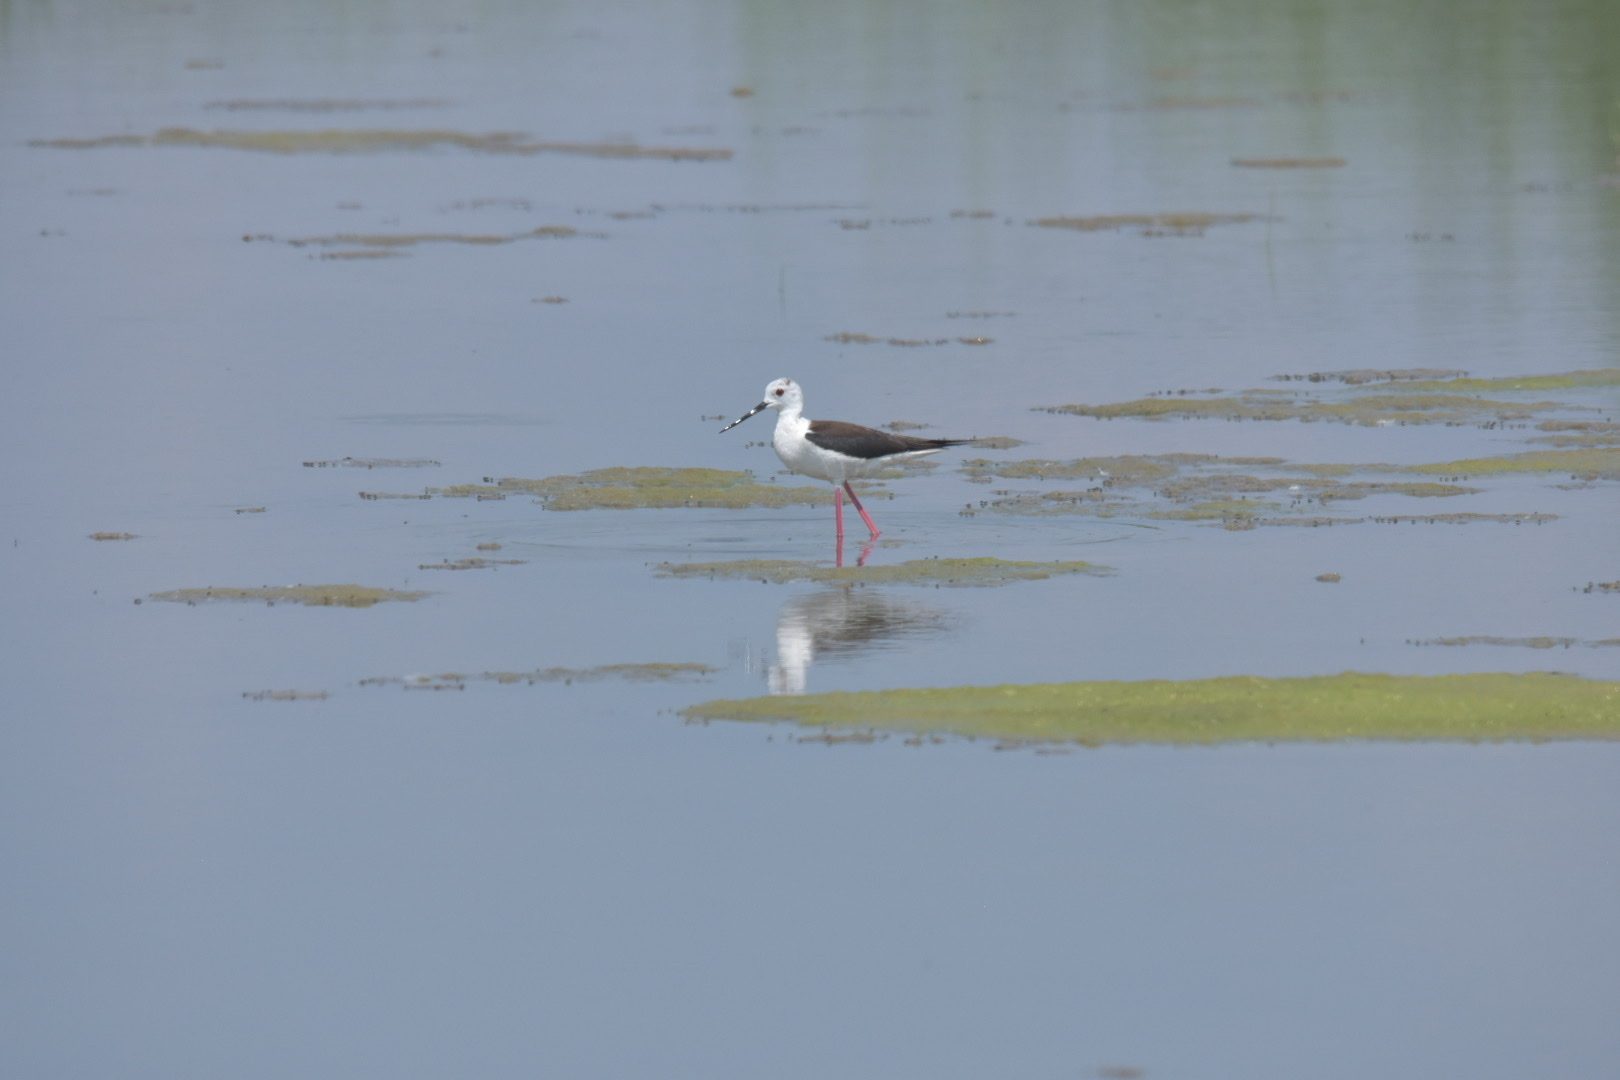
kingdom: Animalia
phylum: Chordata
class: Aves
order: Charadriiformes
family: Recurvirostridae
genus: Himantopus
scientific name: Himantopus himantopus
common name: Black-winged stilt
